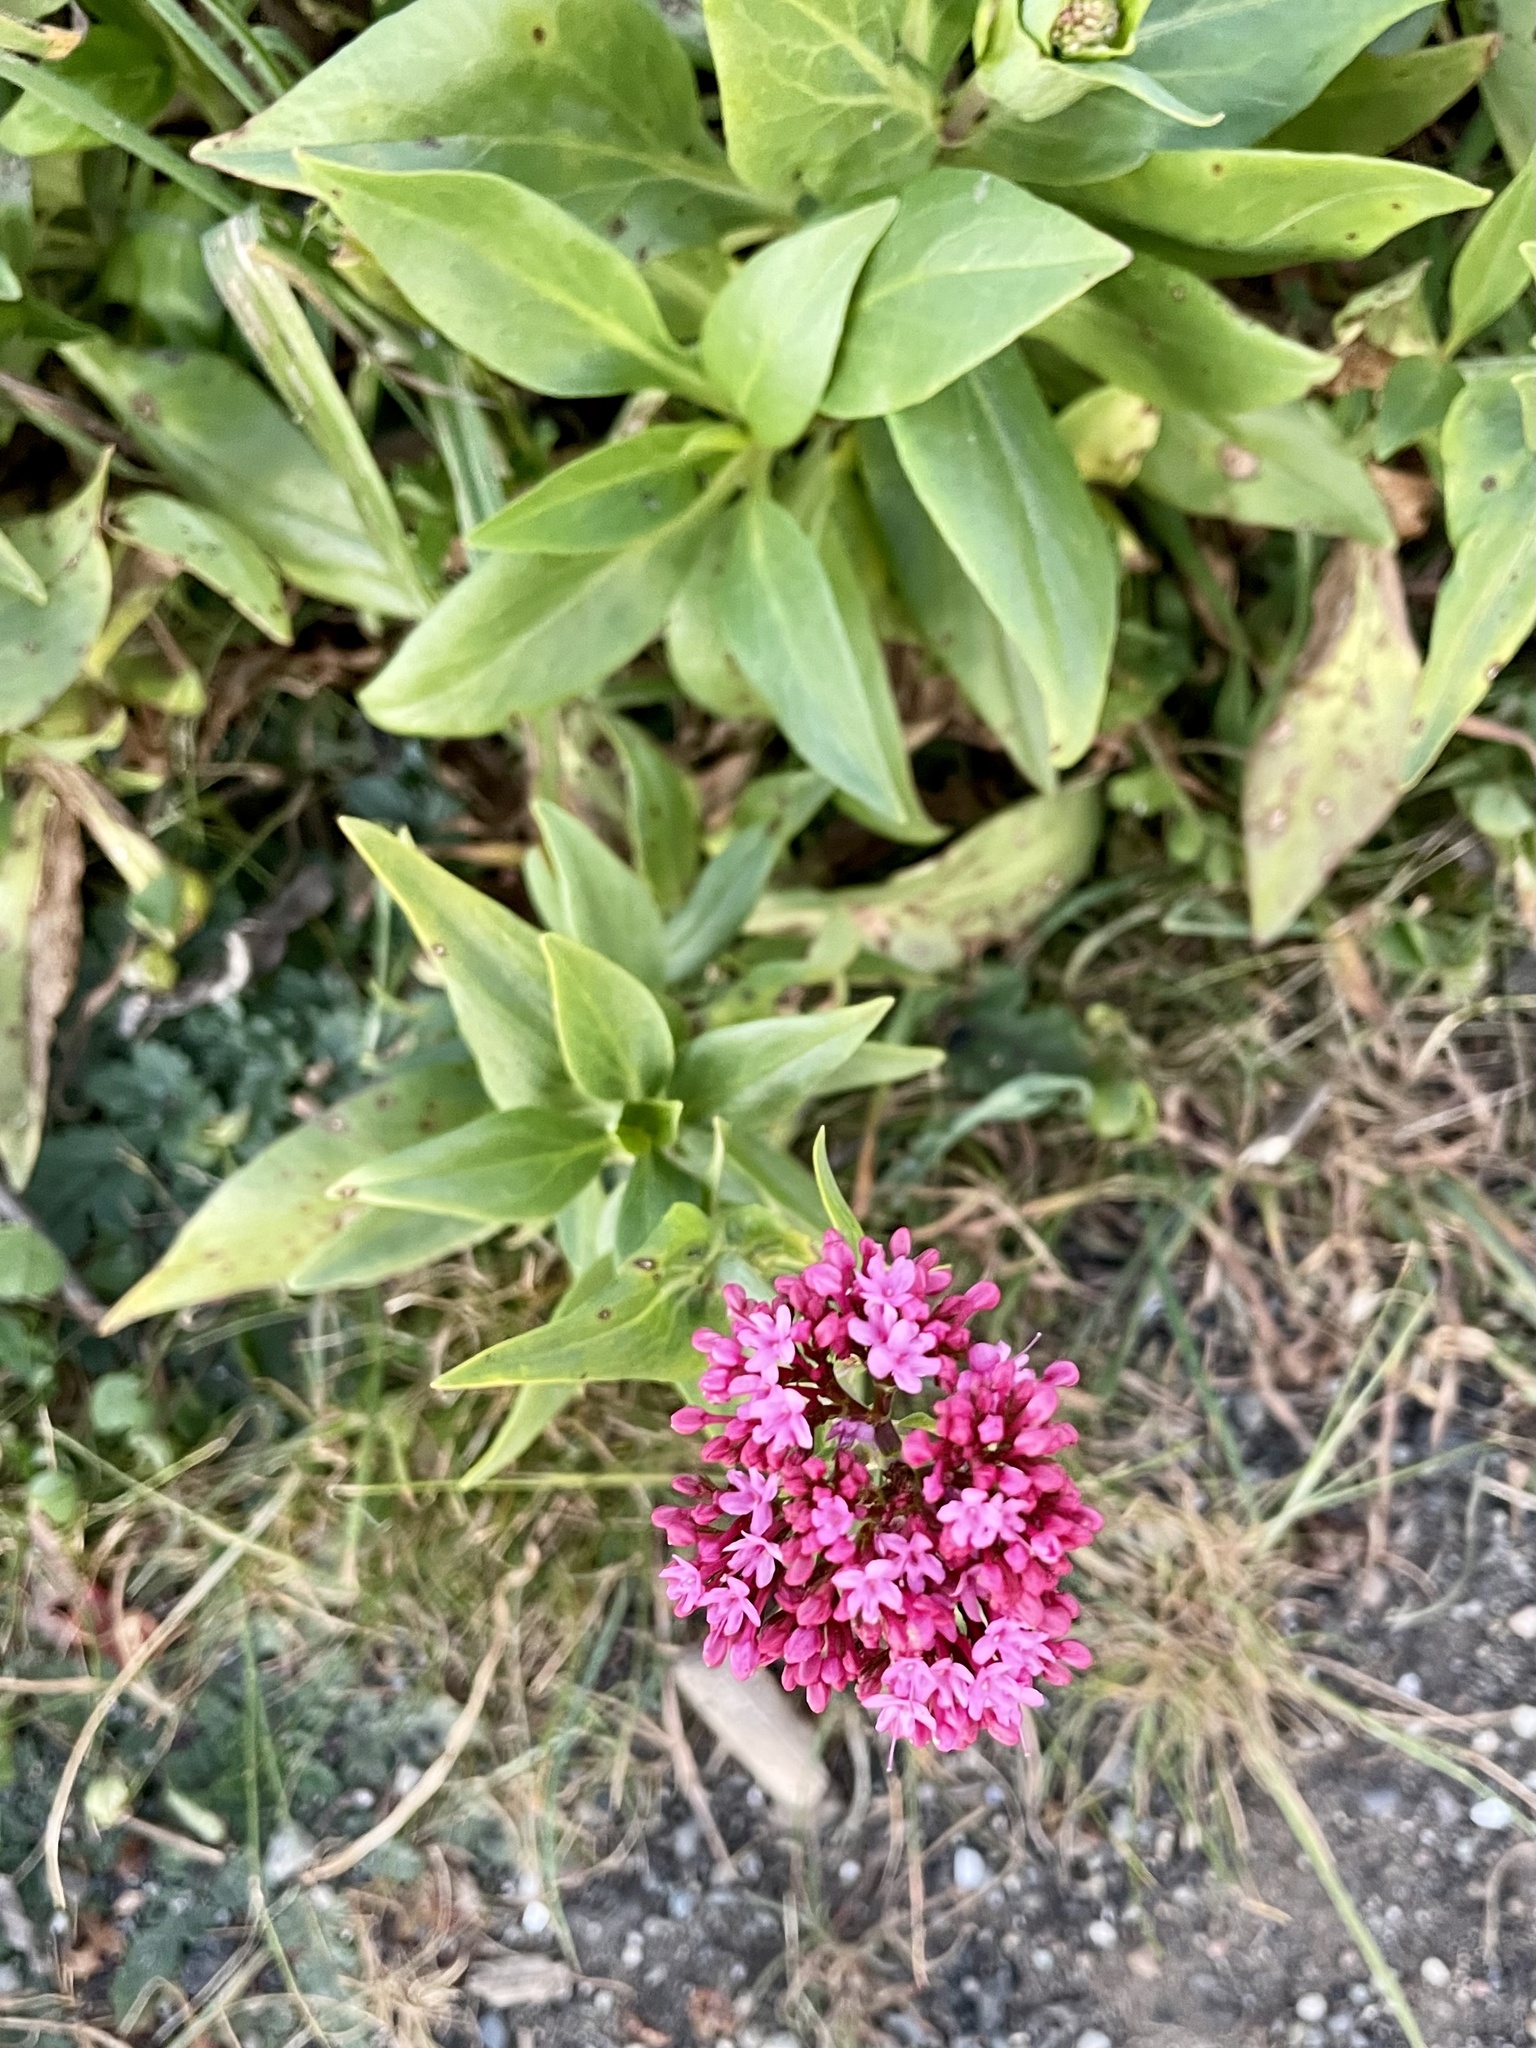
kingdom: Plantae
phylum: Tracheophyta
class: Magnoliopsida
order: Dipsacales
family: Caprifoliaceae
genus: Centranthus
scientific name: Centranthus ruber
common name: Red valerian
